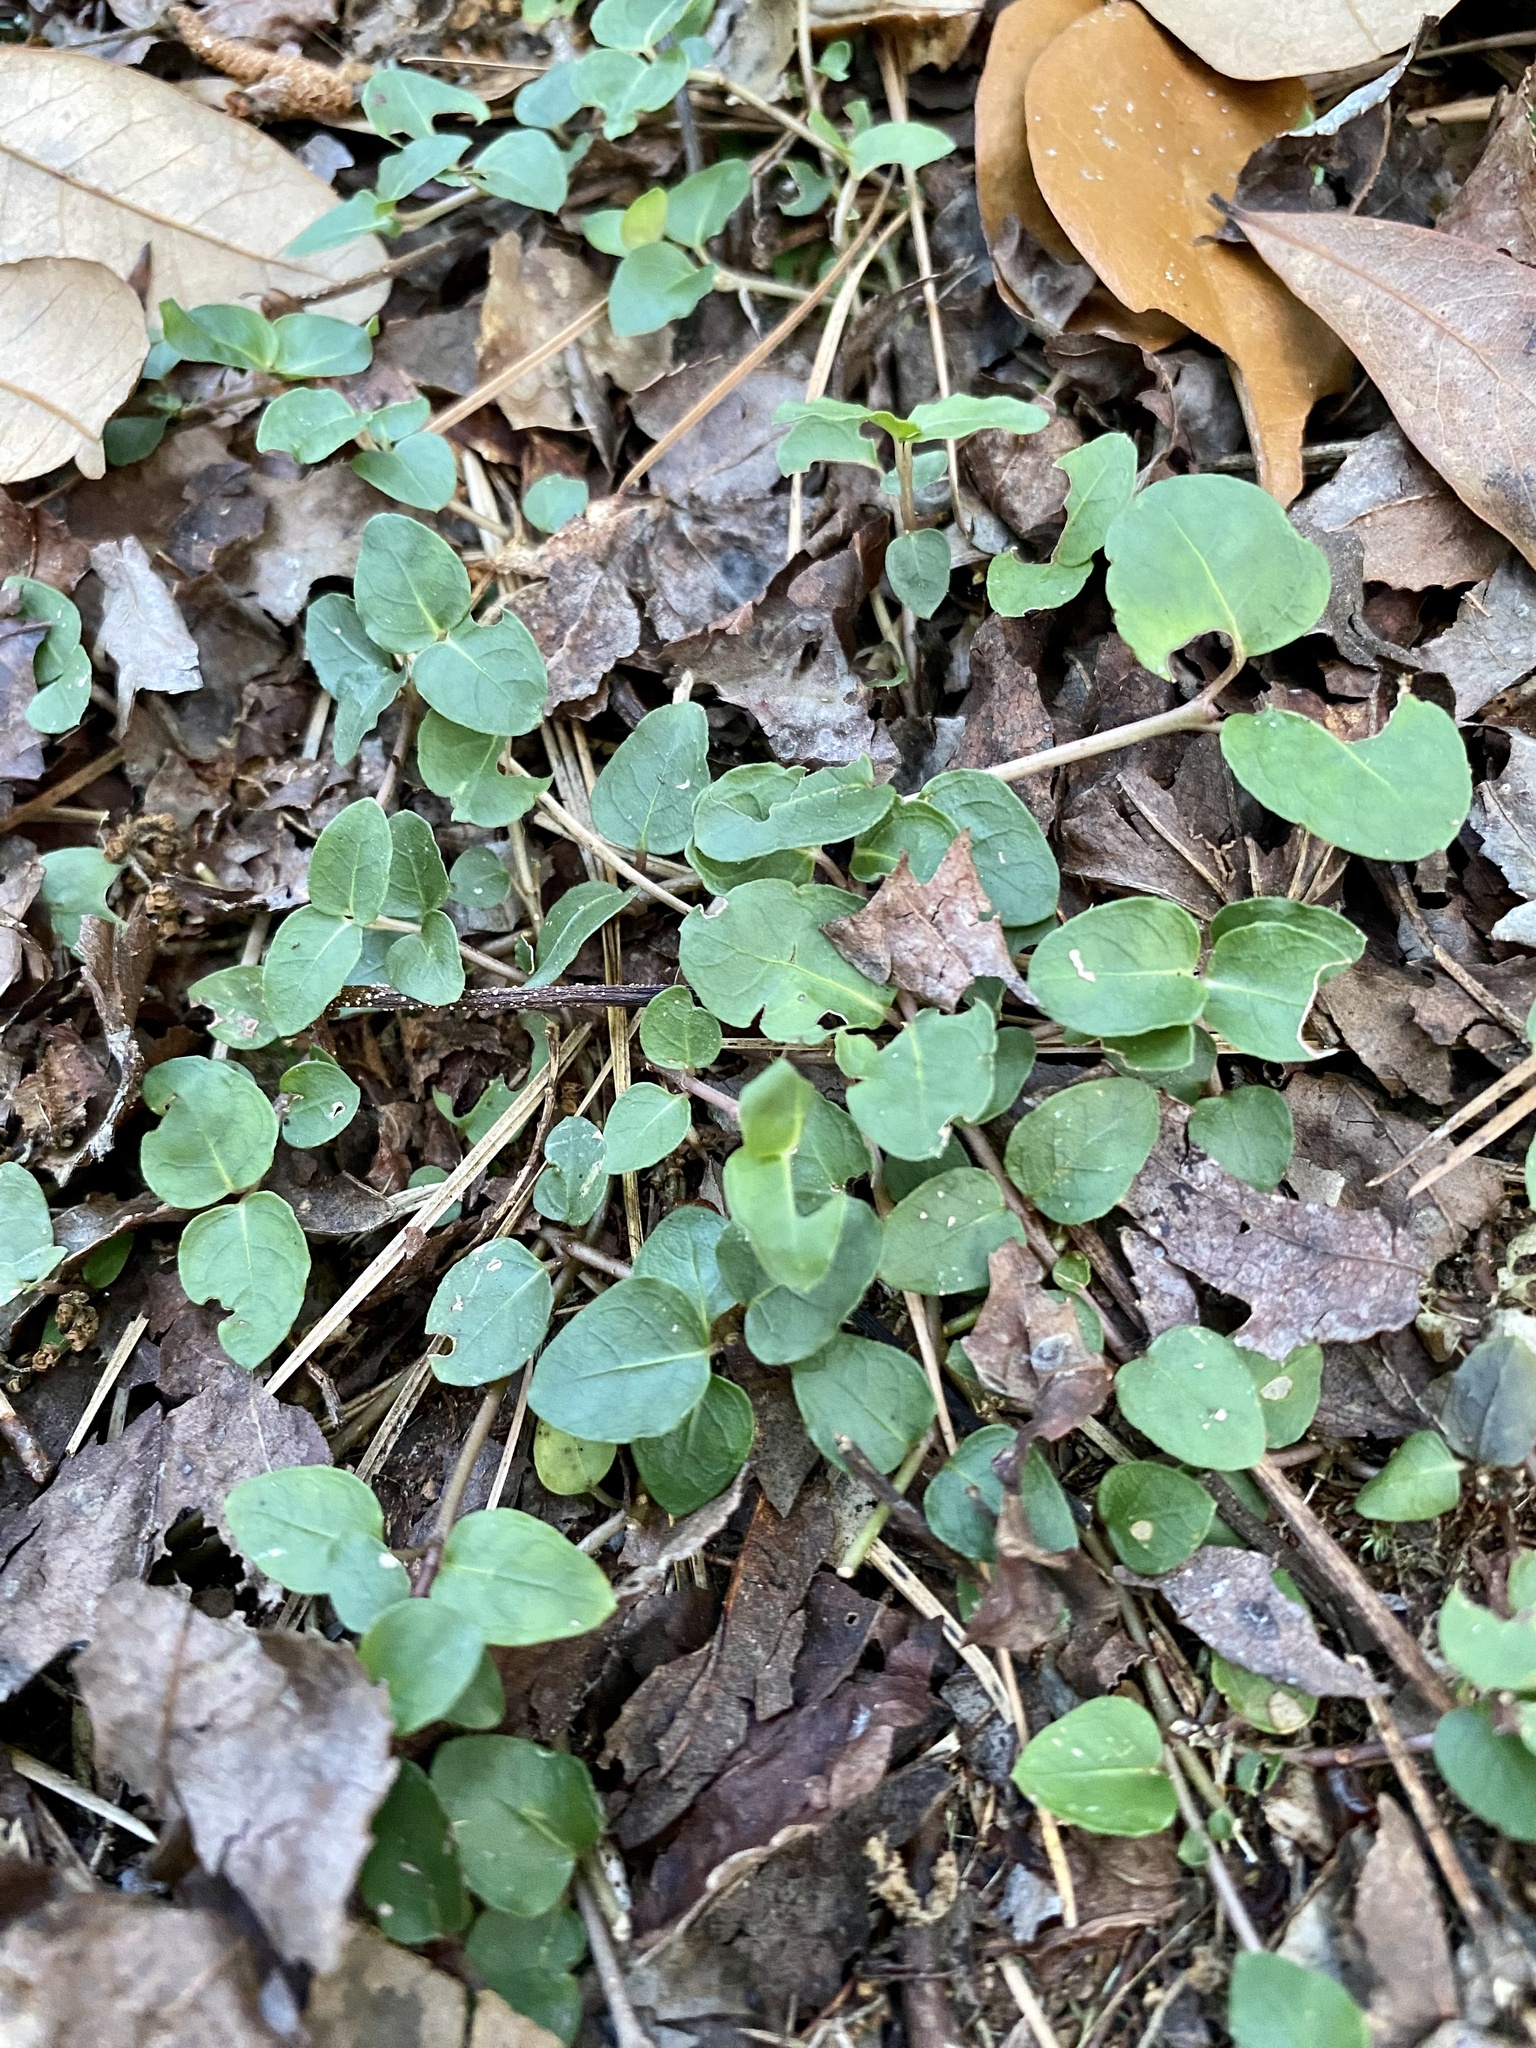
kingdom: Plantae
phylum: Tracheophyta
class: Magnoliopsida
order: Gentianales
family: Rubiaceae
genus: Mitchella
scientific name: Mitchella repens
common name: Partridge-berry
